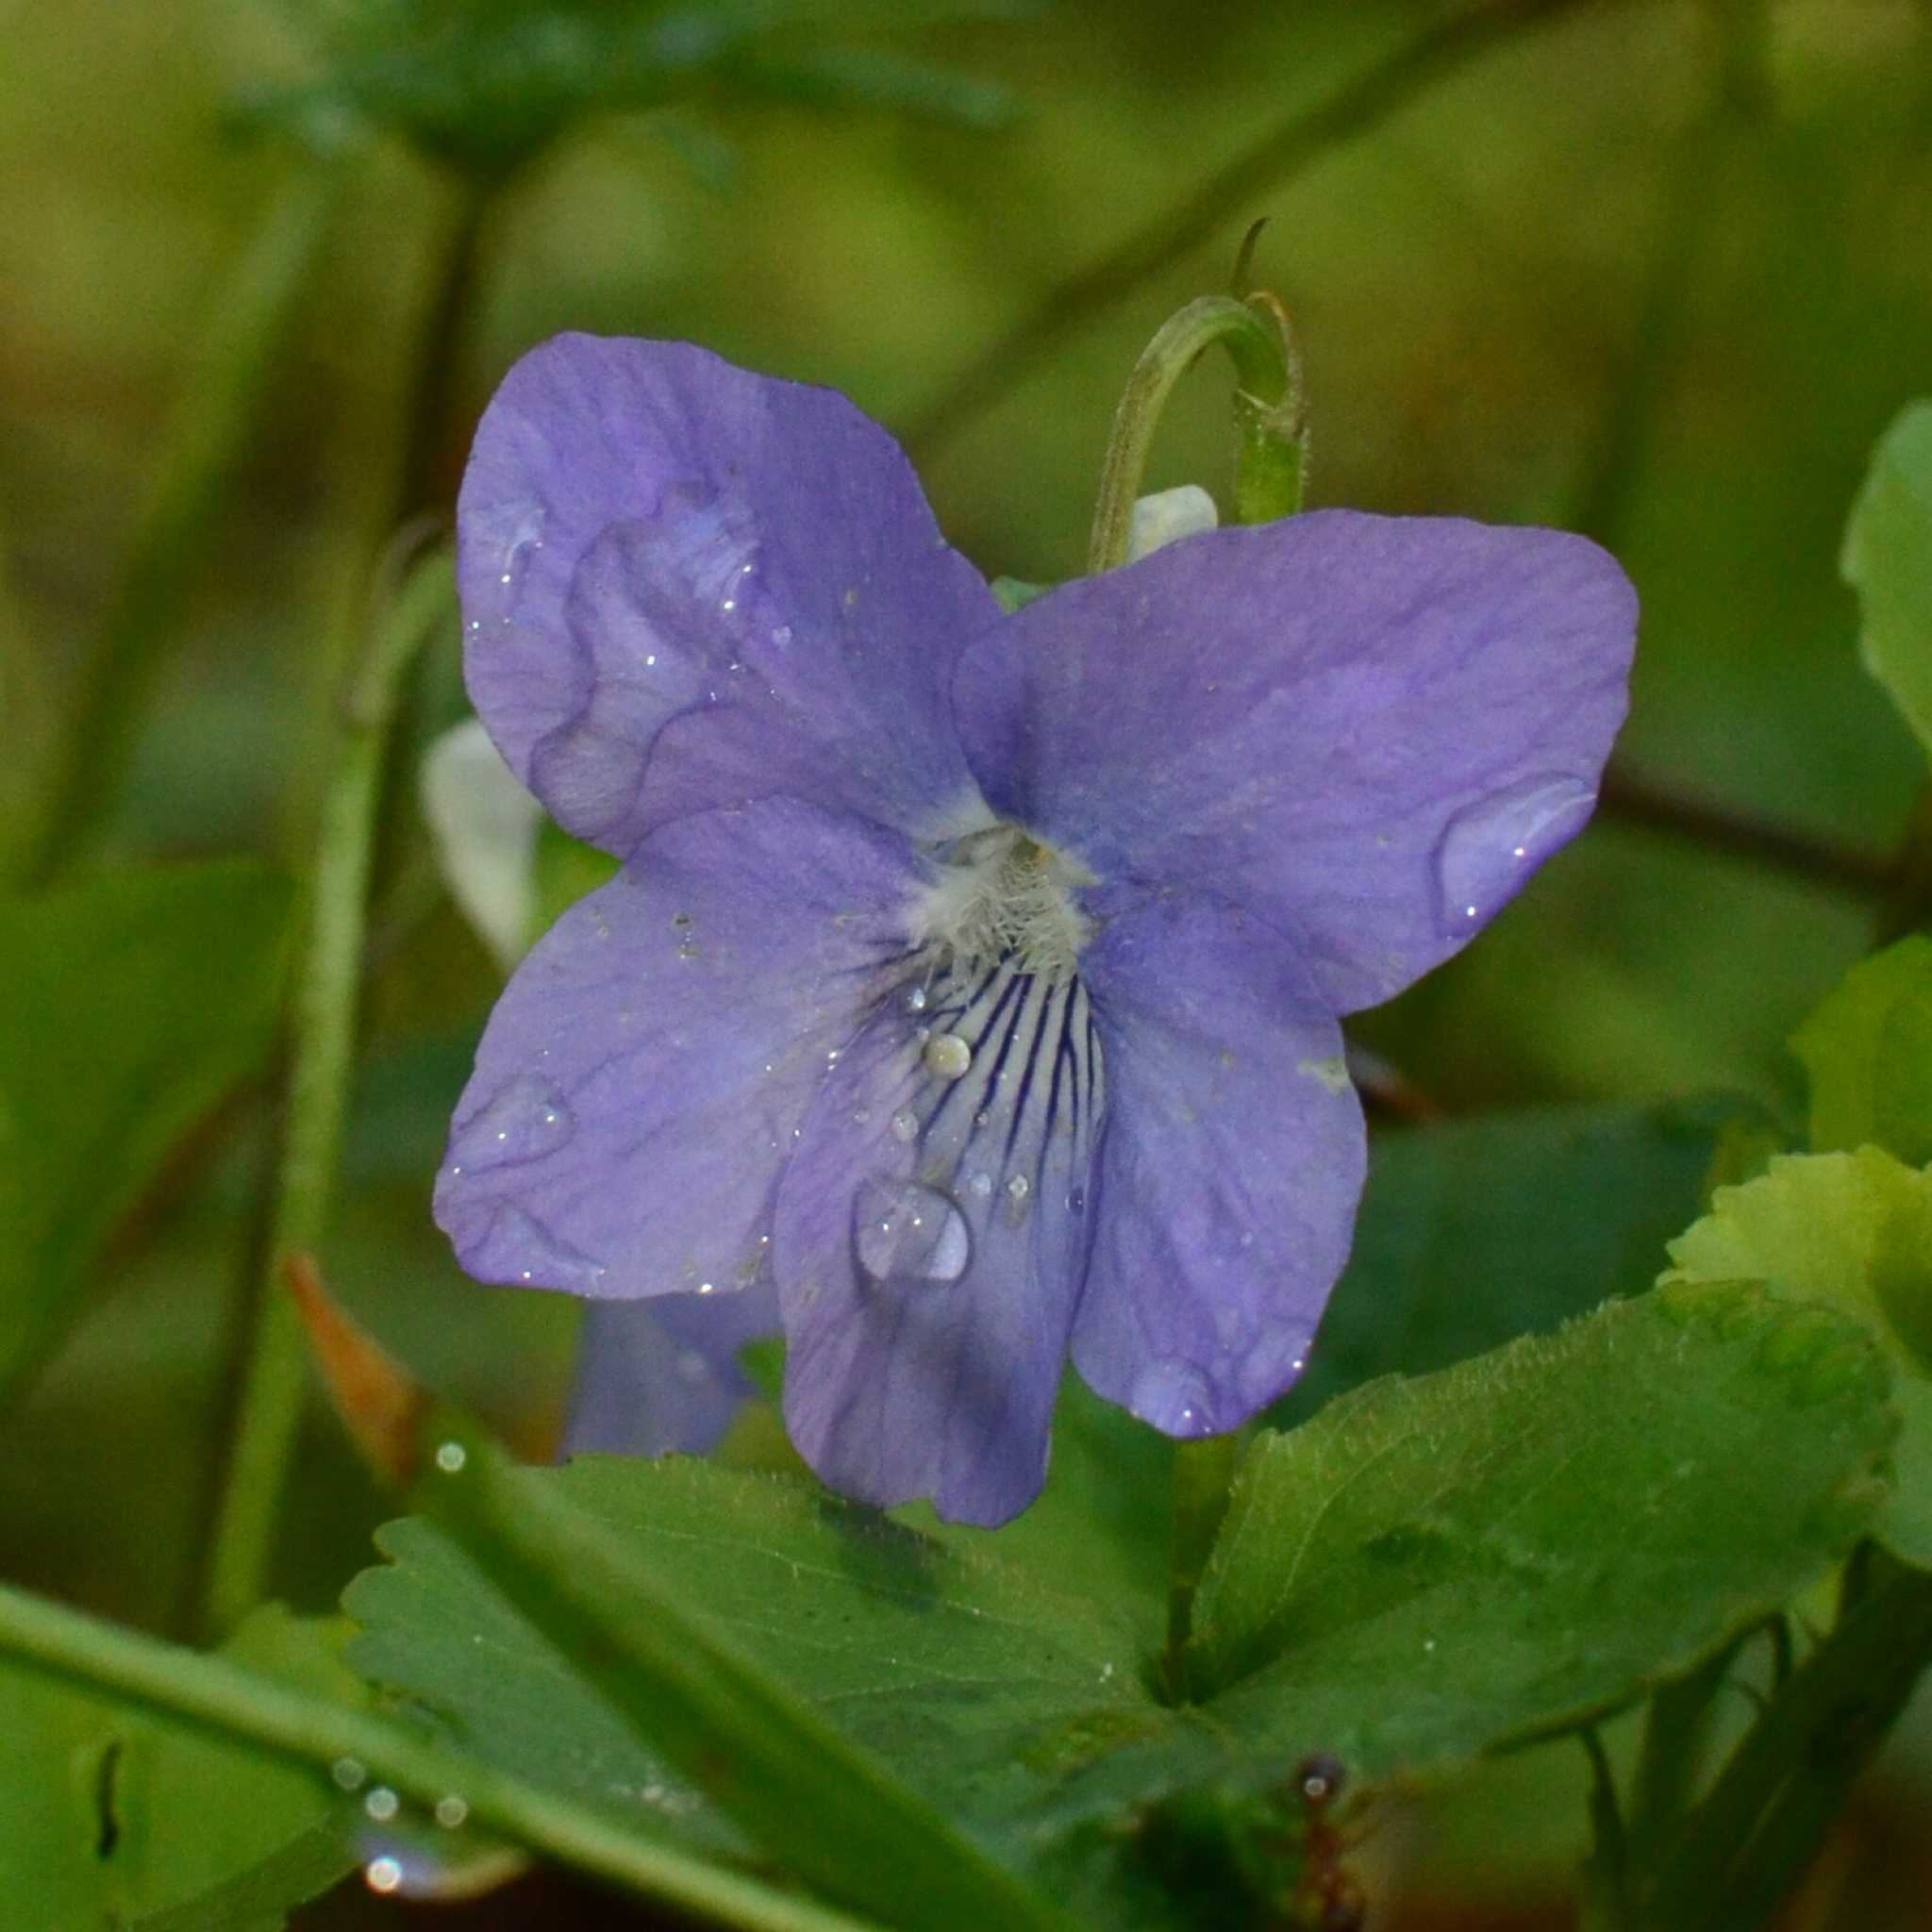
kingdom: Plantae
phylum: Tracheophyta
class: Magnoliopsida
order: Malpighiales
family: Violaceae
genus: Viola
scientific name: Viola riviniana
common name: Common dog-violet
